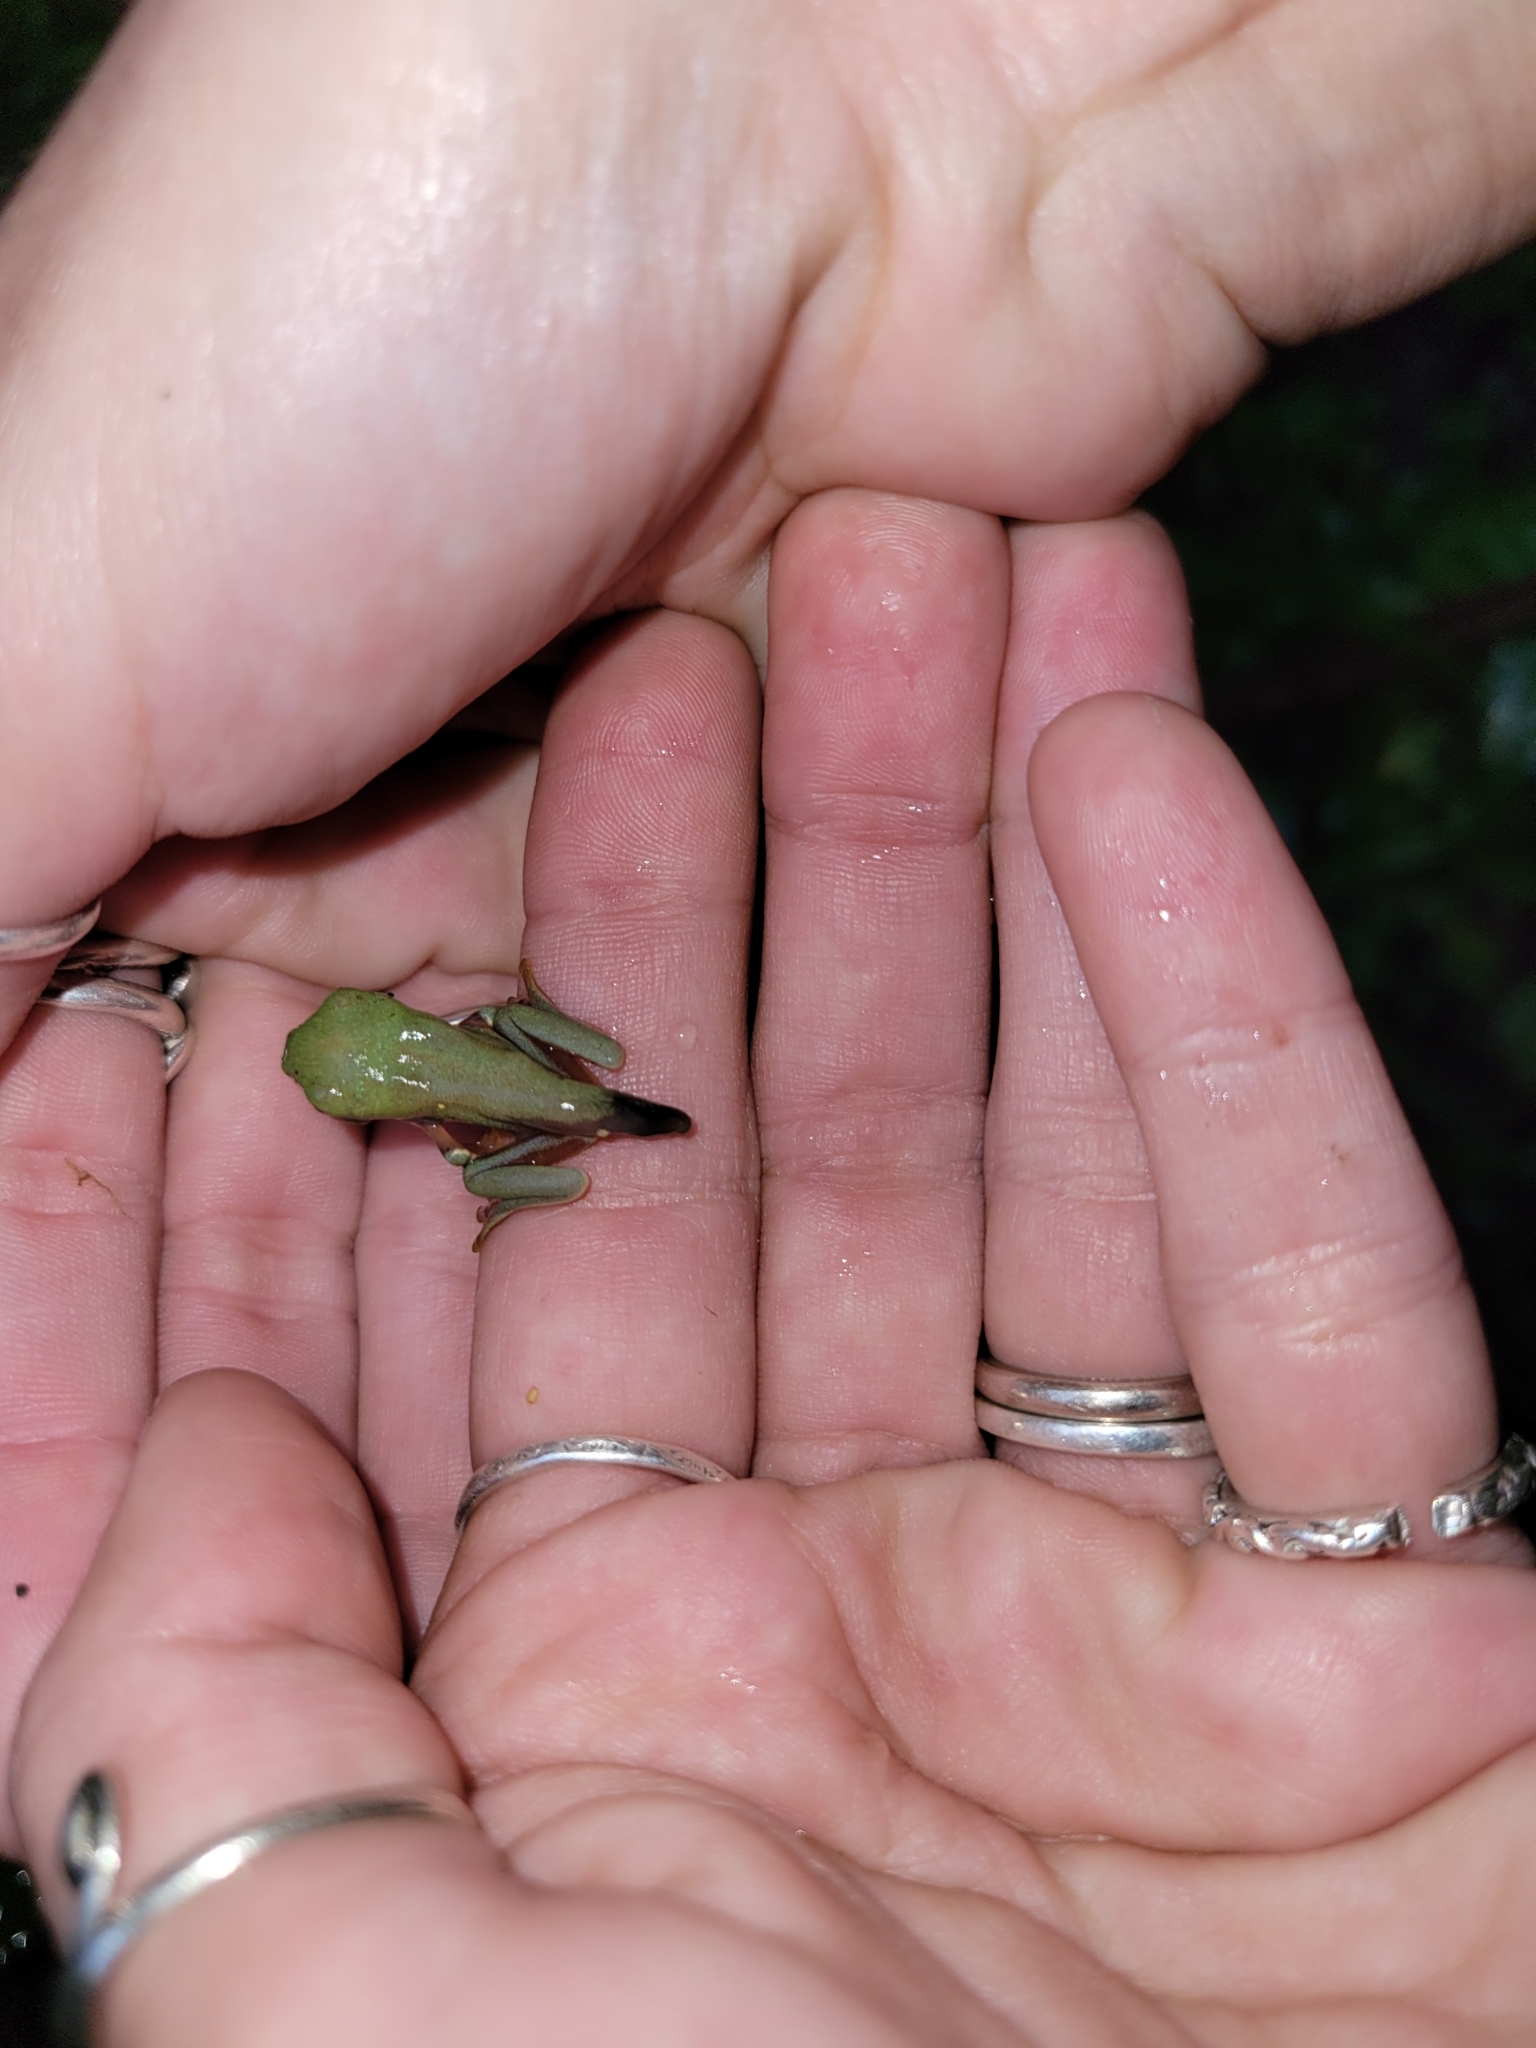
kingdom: Animalia
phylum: Chordata
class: Amphibia
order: Anura
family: Phyllomedusidae
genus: Agalychnis
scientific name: Agalychnis annae
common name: Blue-sided treefrog
